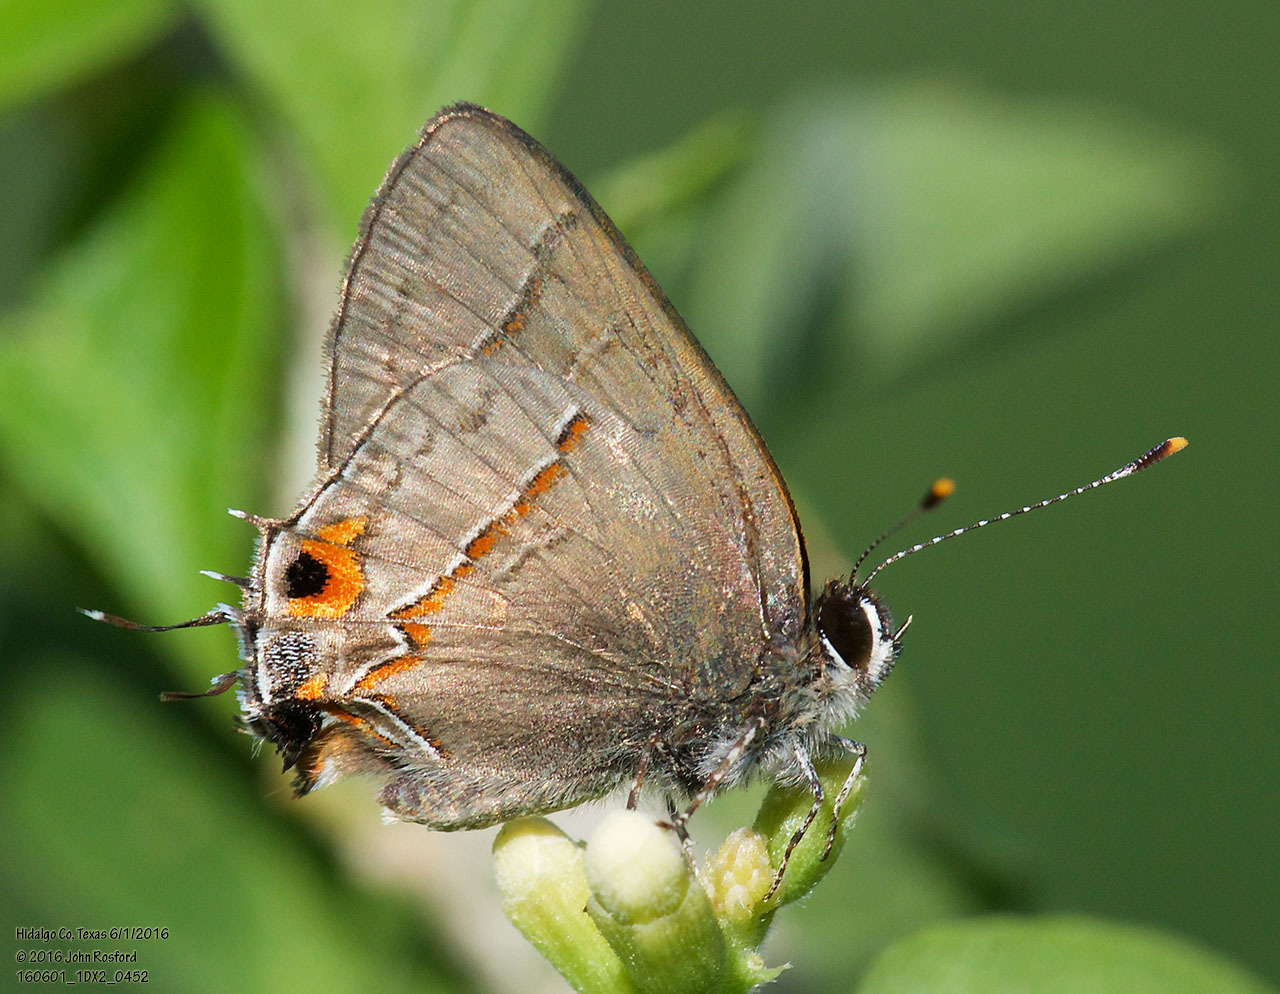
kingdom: Animalia
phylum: Arthropoda
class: Insecta
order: Lepidoptera
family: Lycaenidae
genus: Electrostrymon
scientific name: Electrostrymon endymion
